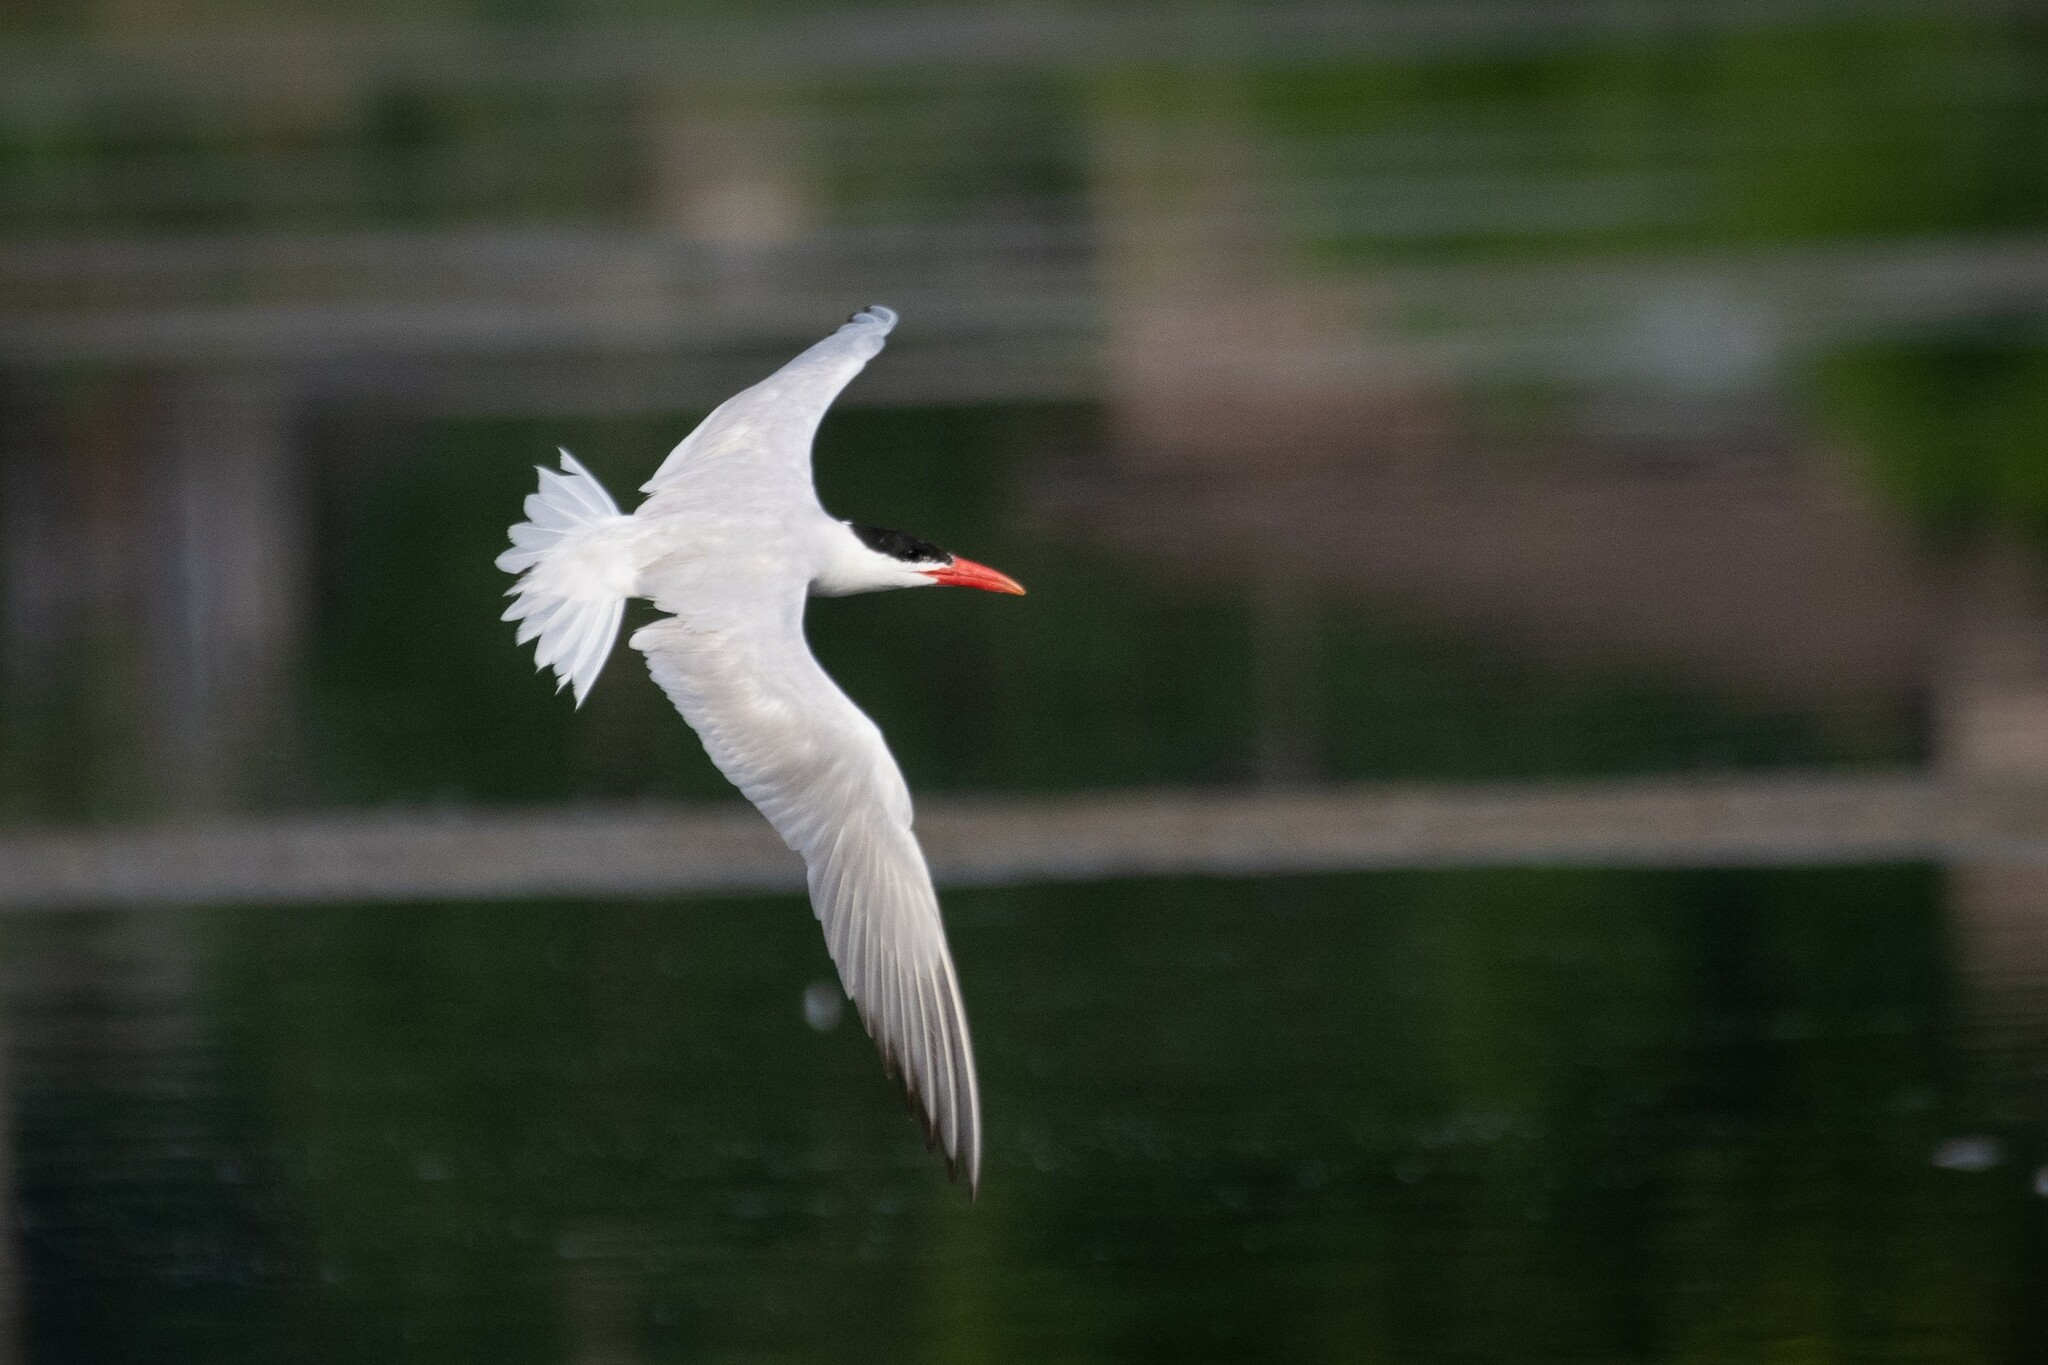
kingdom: Animalia
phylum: Chordata
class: Aves
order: Charadriiformes
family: Laridae
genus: Hydroprogne
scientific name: Hydroprogne caspia
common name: Caspian tern
